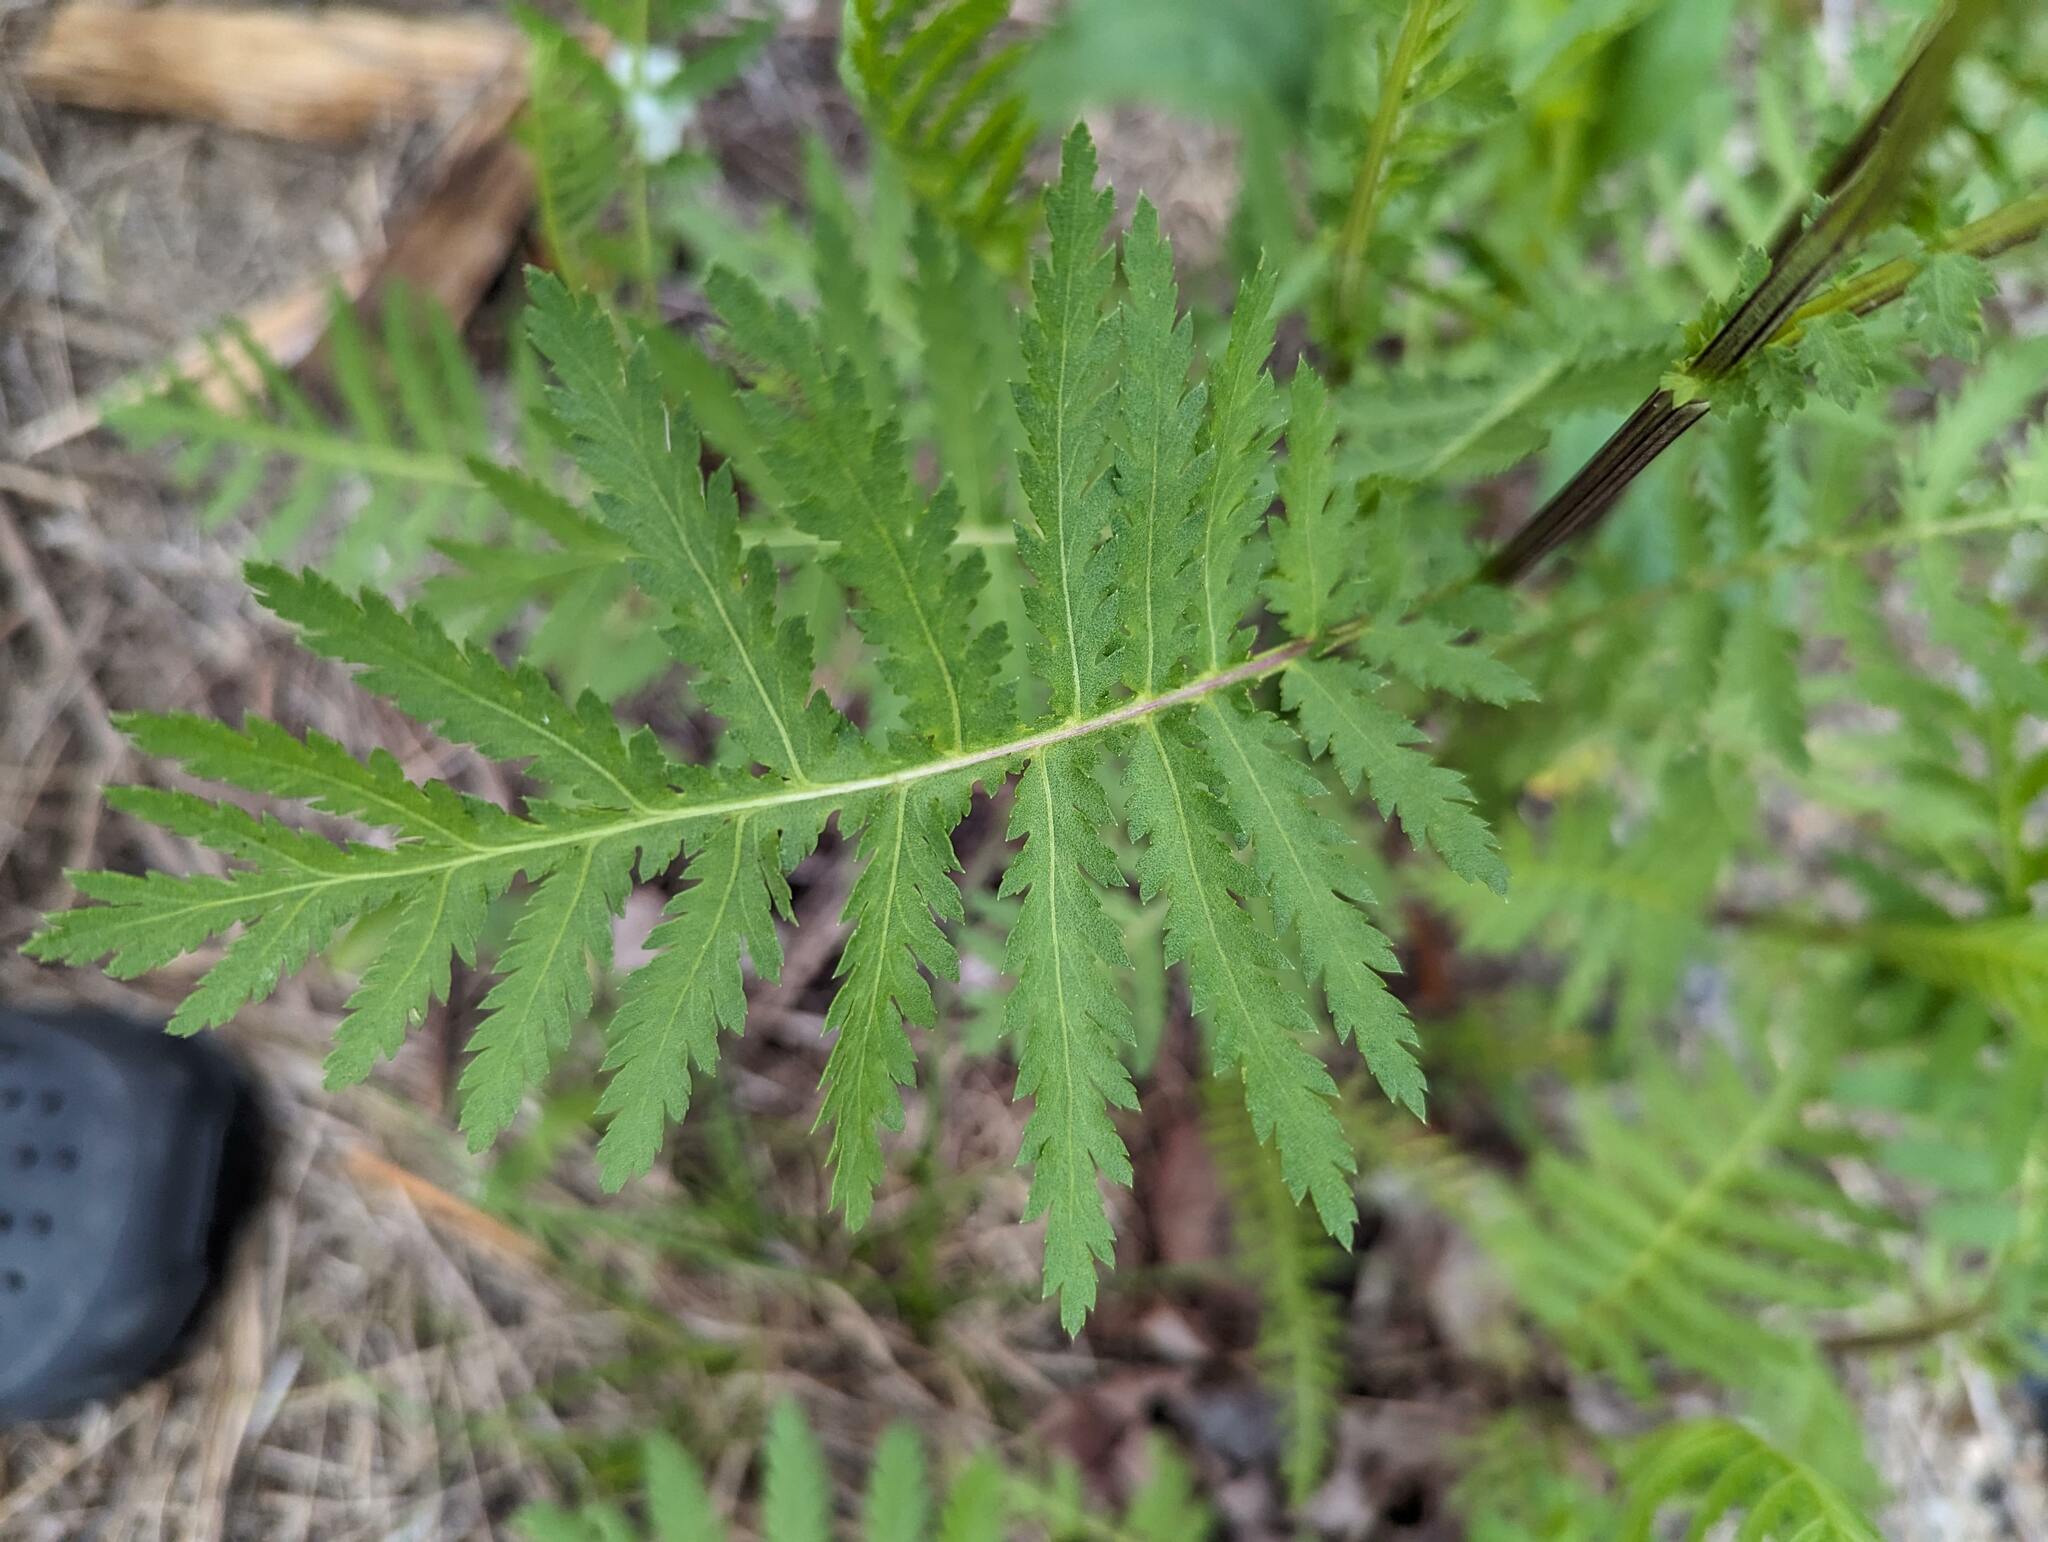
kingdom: Plantae
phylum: Tracheophyta
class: Magnoliopsida
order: Asterales
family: Asteraceae
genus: Tanacetum
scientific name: Tanacetum vulgare
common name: Common tansy
